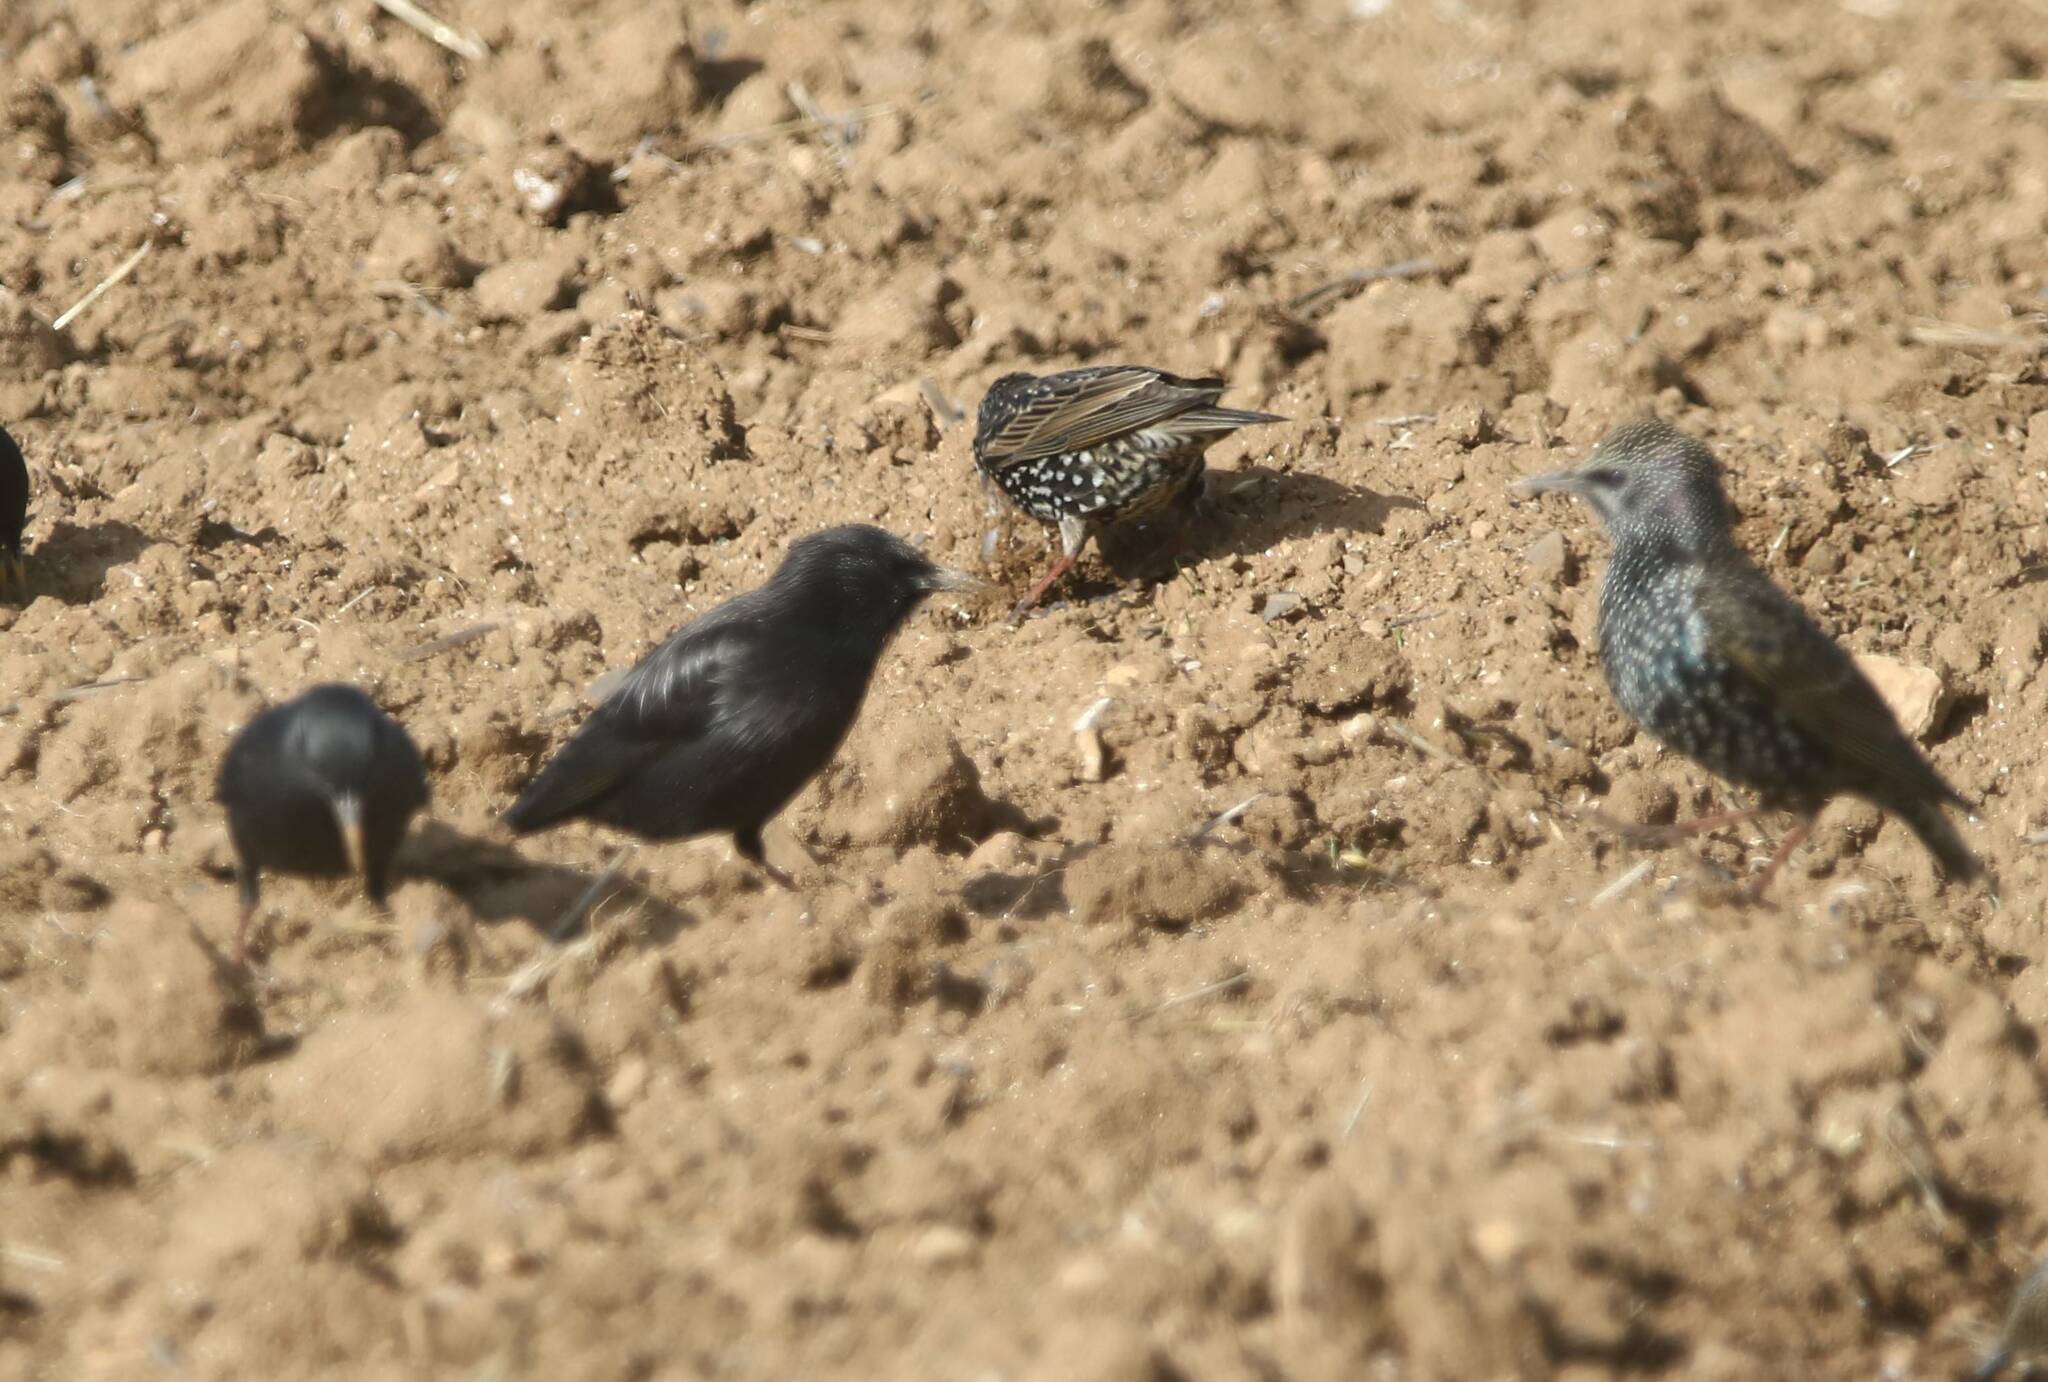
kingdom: Animalia
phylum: Chordata
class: Aves
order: Passeriformes
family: Sturnidae
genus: Sturnus
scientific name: Sturnus unicolor
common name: Spotless starling
